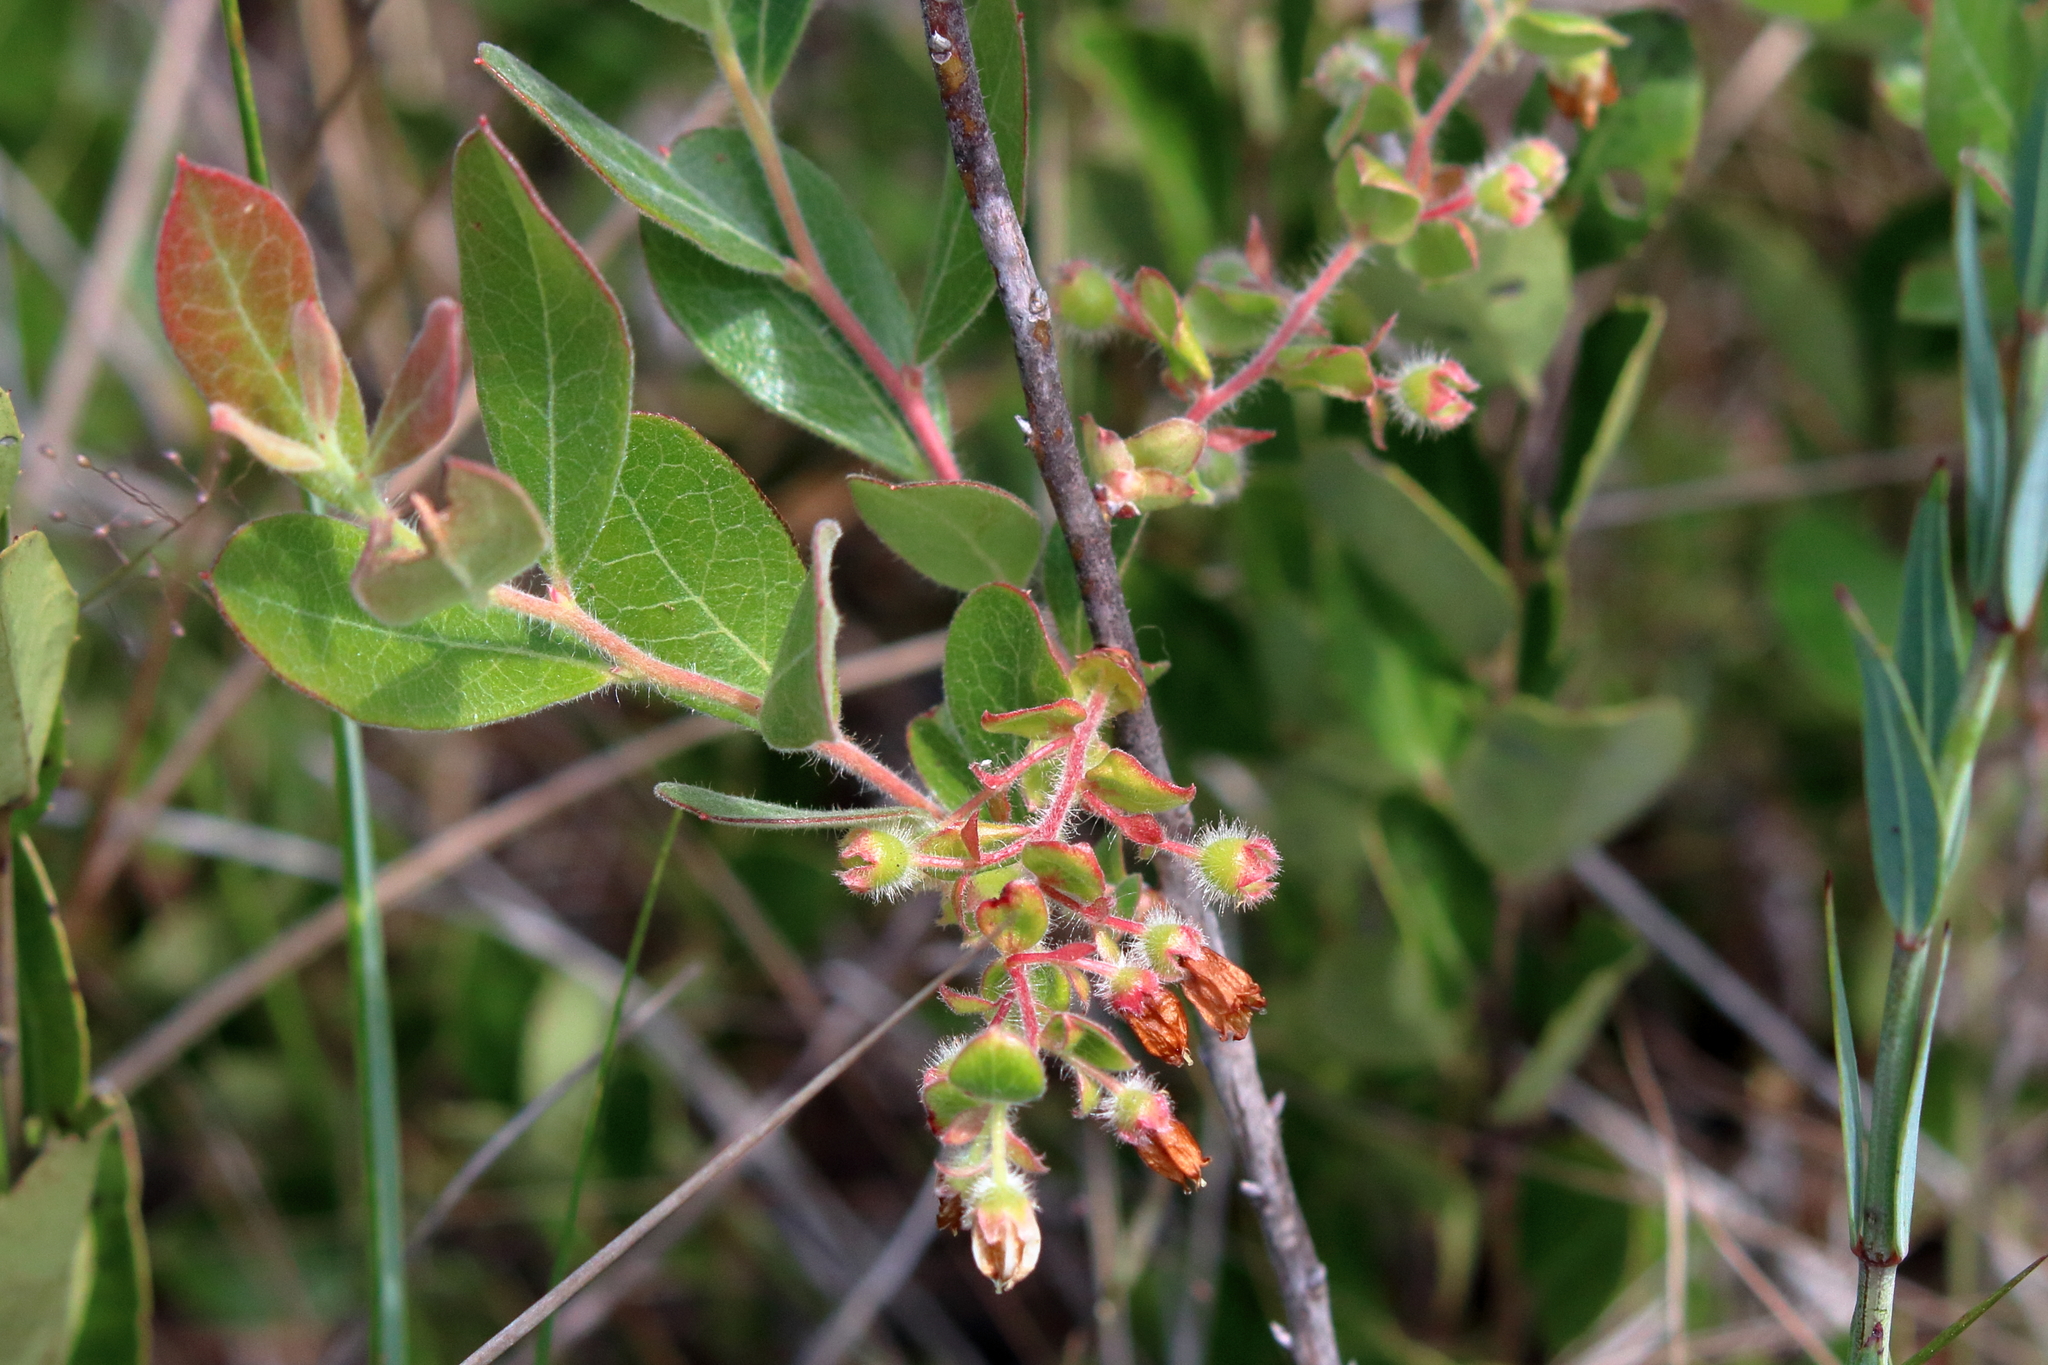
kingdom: Plantae
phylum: Tracheophyta
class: Magnoliopsida
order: Ericales
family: Ericaceae
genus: Gaylussacia
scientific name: Gaylussacia mosieri
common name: Hirsute huckleberry
